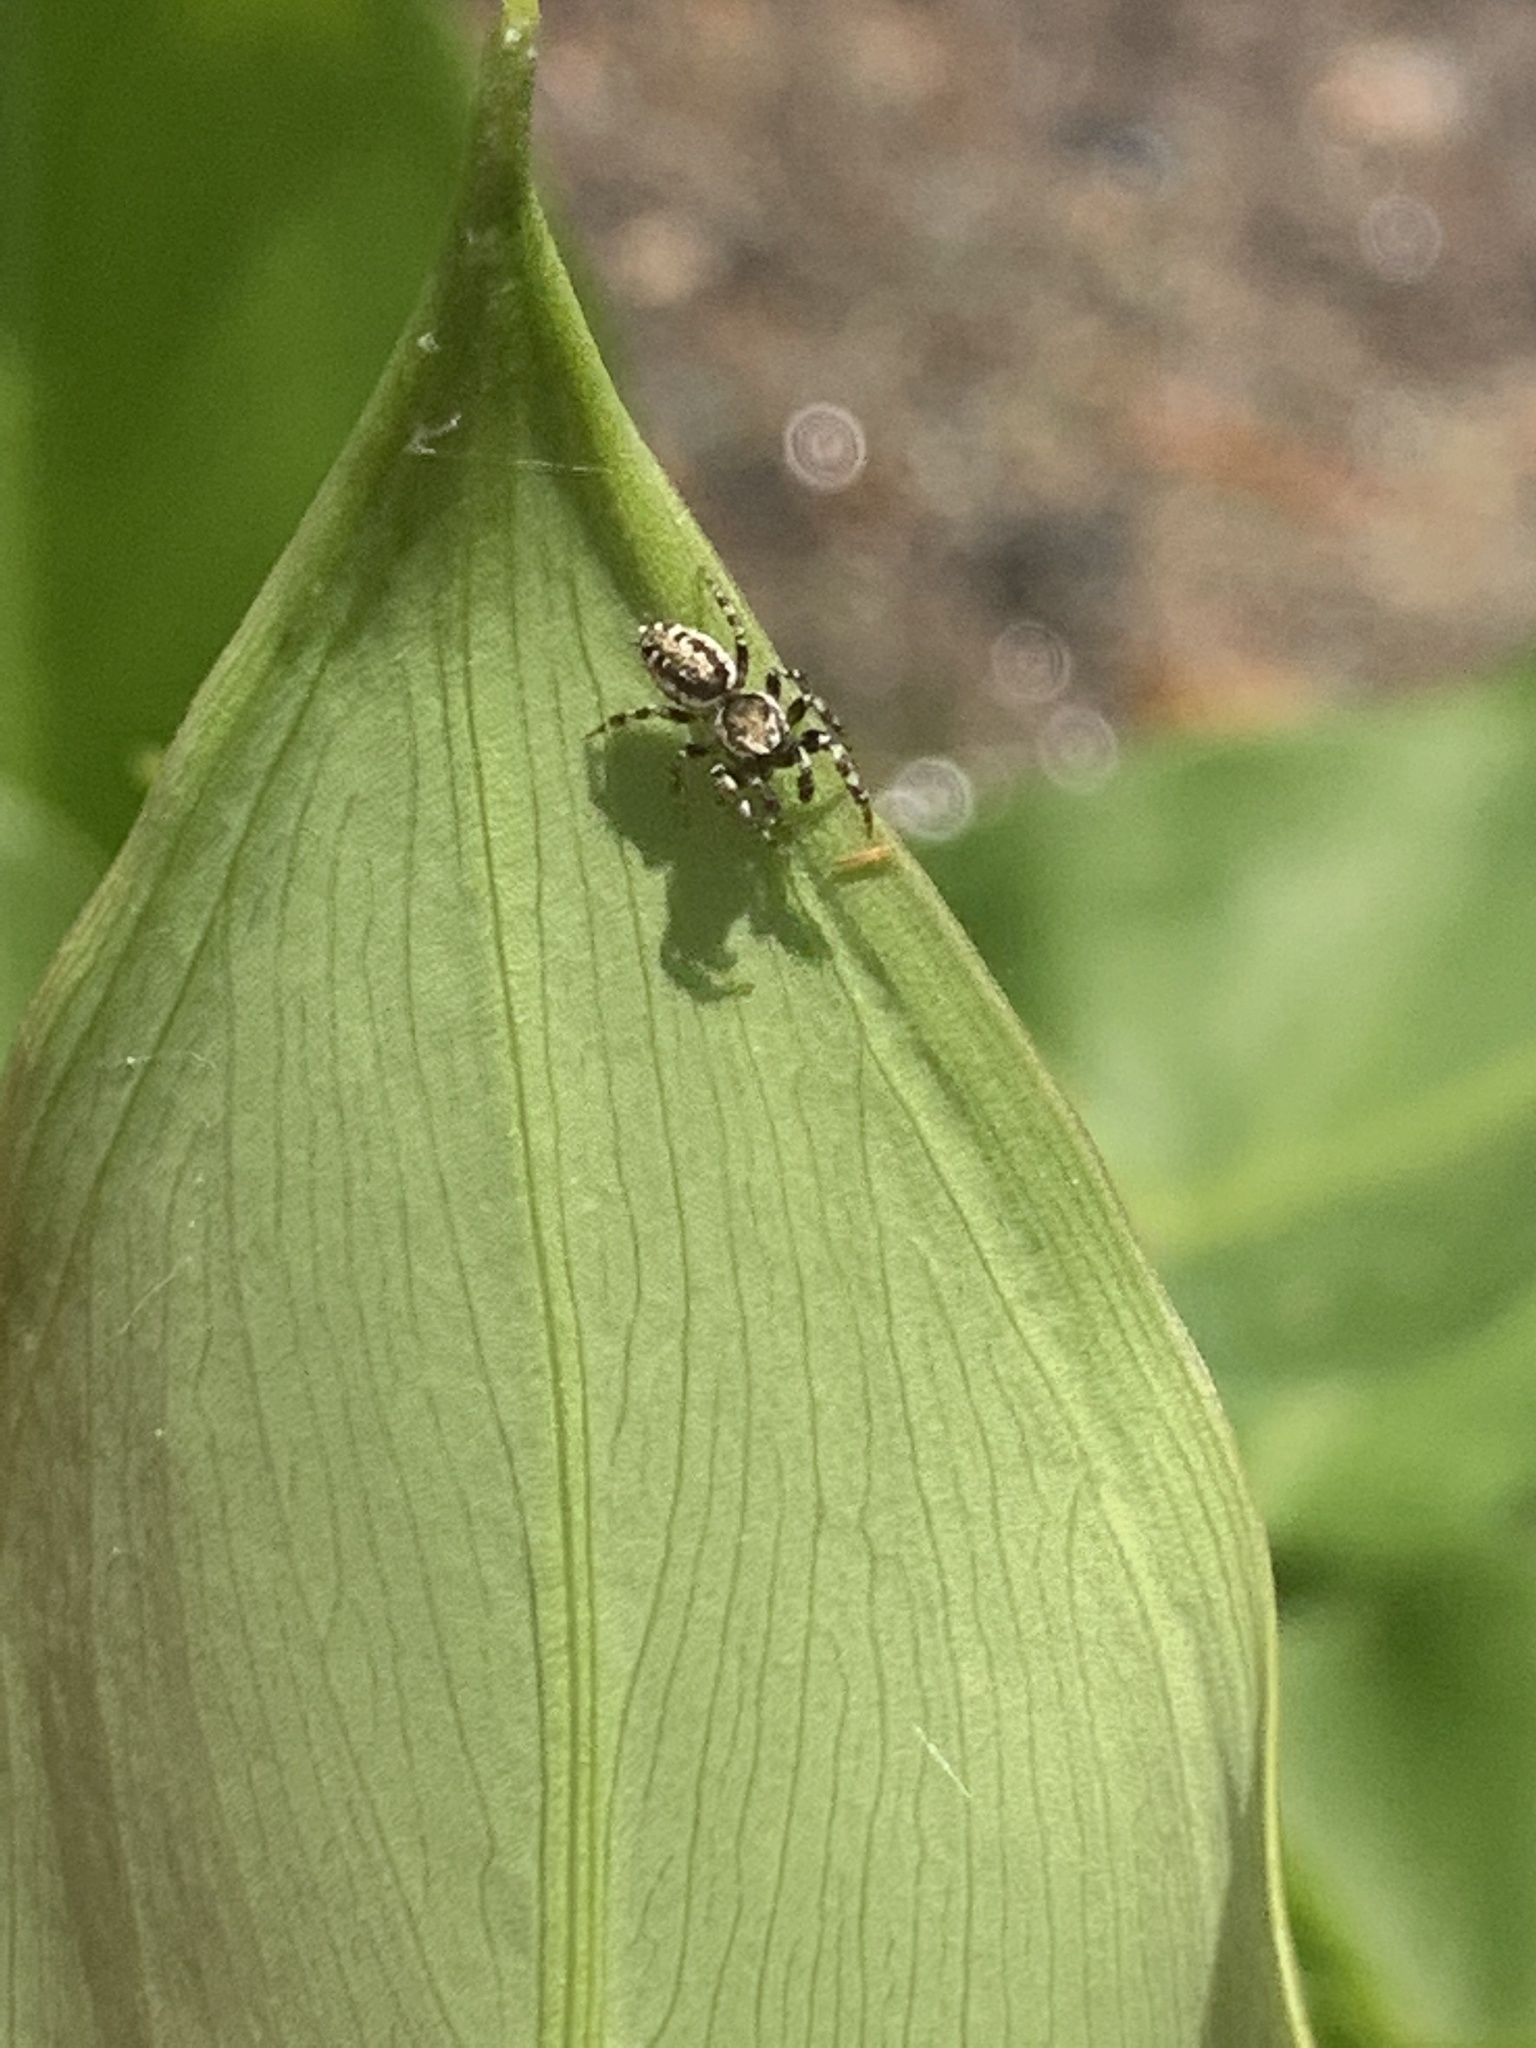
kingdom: Animalia
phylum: Arthropoda
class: Arachnida
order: Araneae
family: Salticidae
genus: Pelegrina
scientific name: Pelegrina galathea
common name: Jumping spiders
